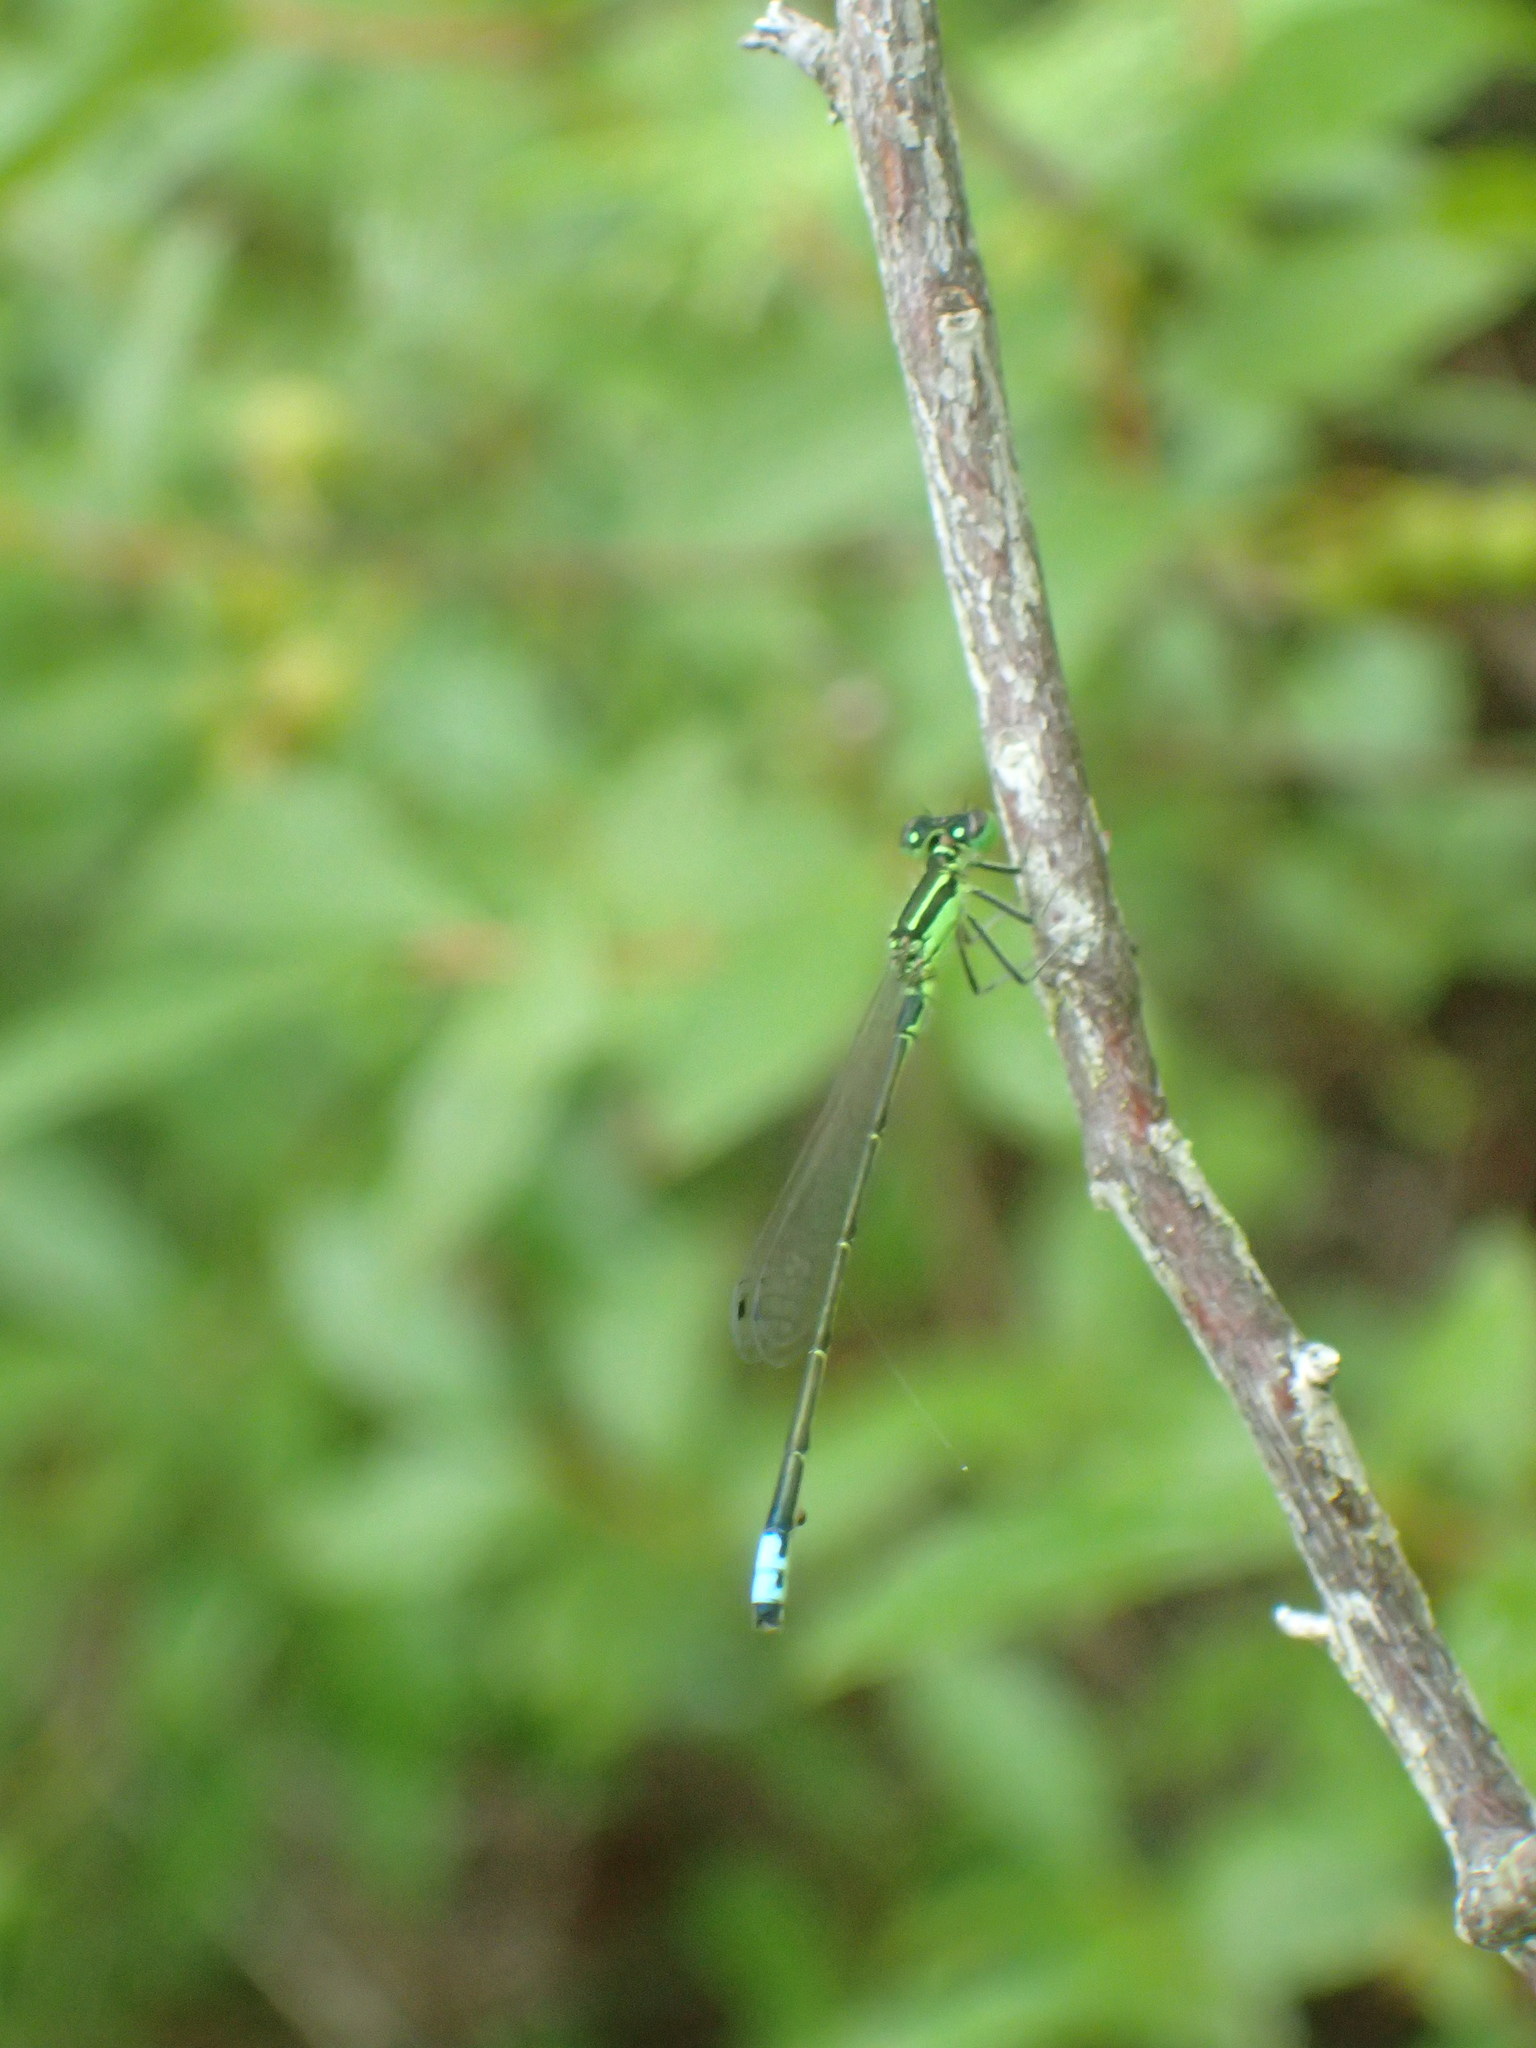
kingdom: Animalia
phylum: Arthropoda
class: Insecta
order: Odonata
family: Coenagrionidae
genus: Ischnura
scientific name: Ischnura verticalis
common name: Eastern forktail
